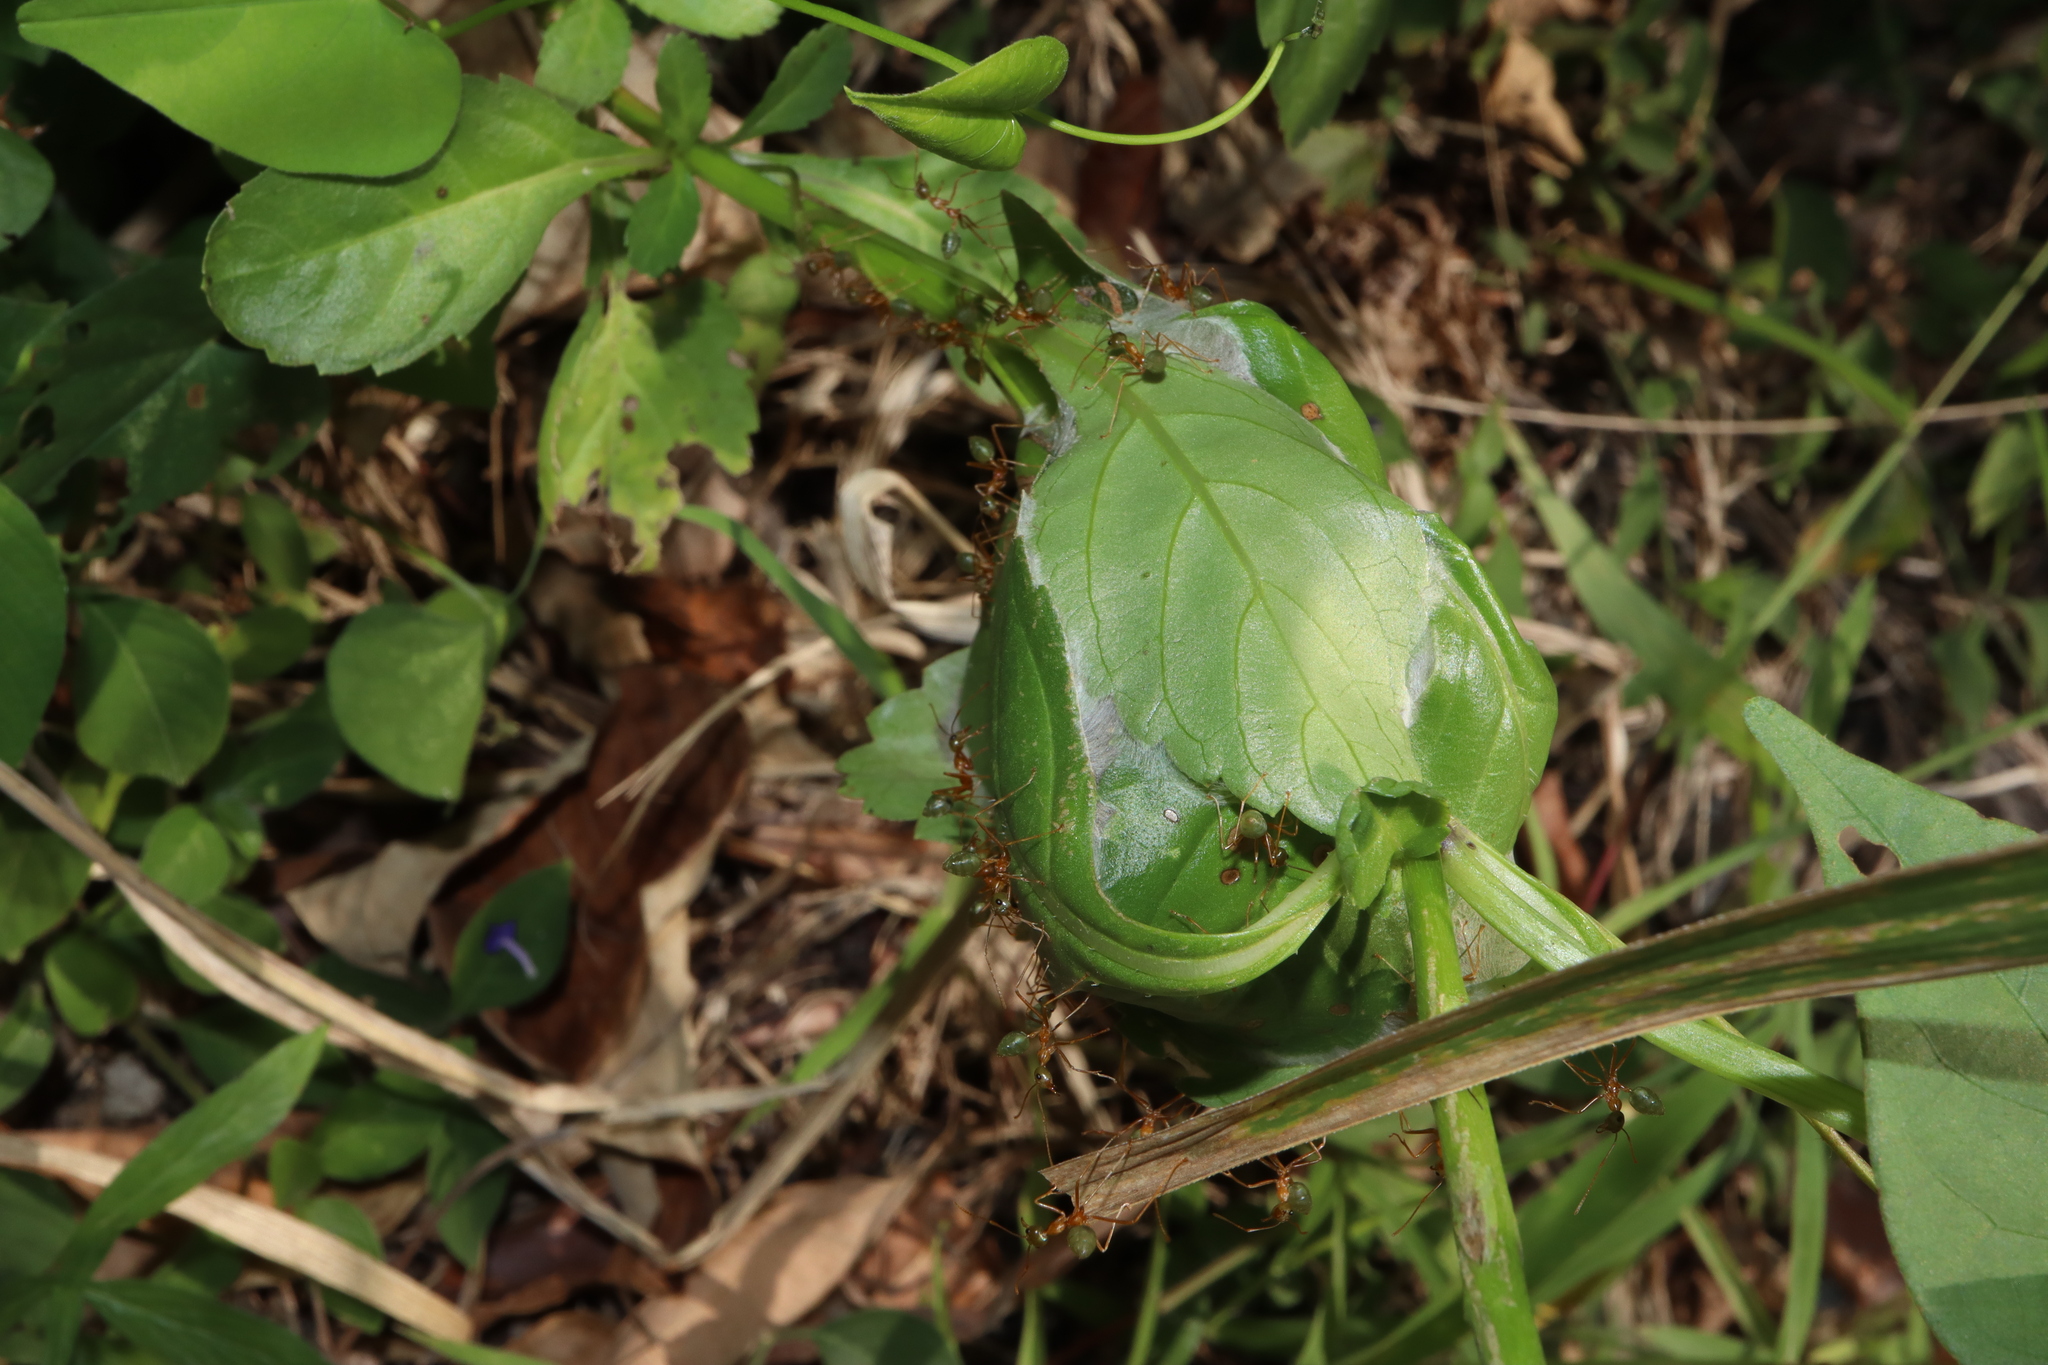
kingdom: Animalia
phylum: Arthropoda
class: Insecta
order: Hymenoptera
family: Formicidae
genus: Oecophylla
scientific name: Oecophylla smaragdina
